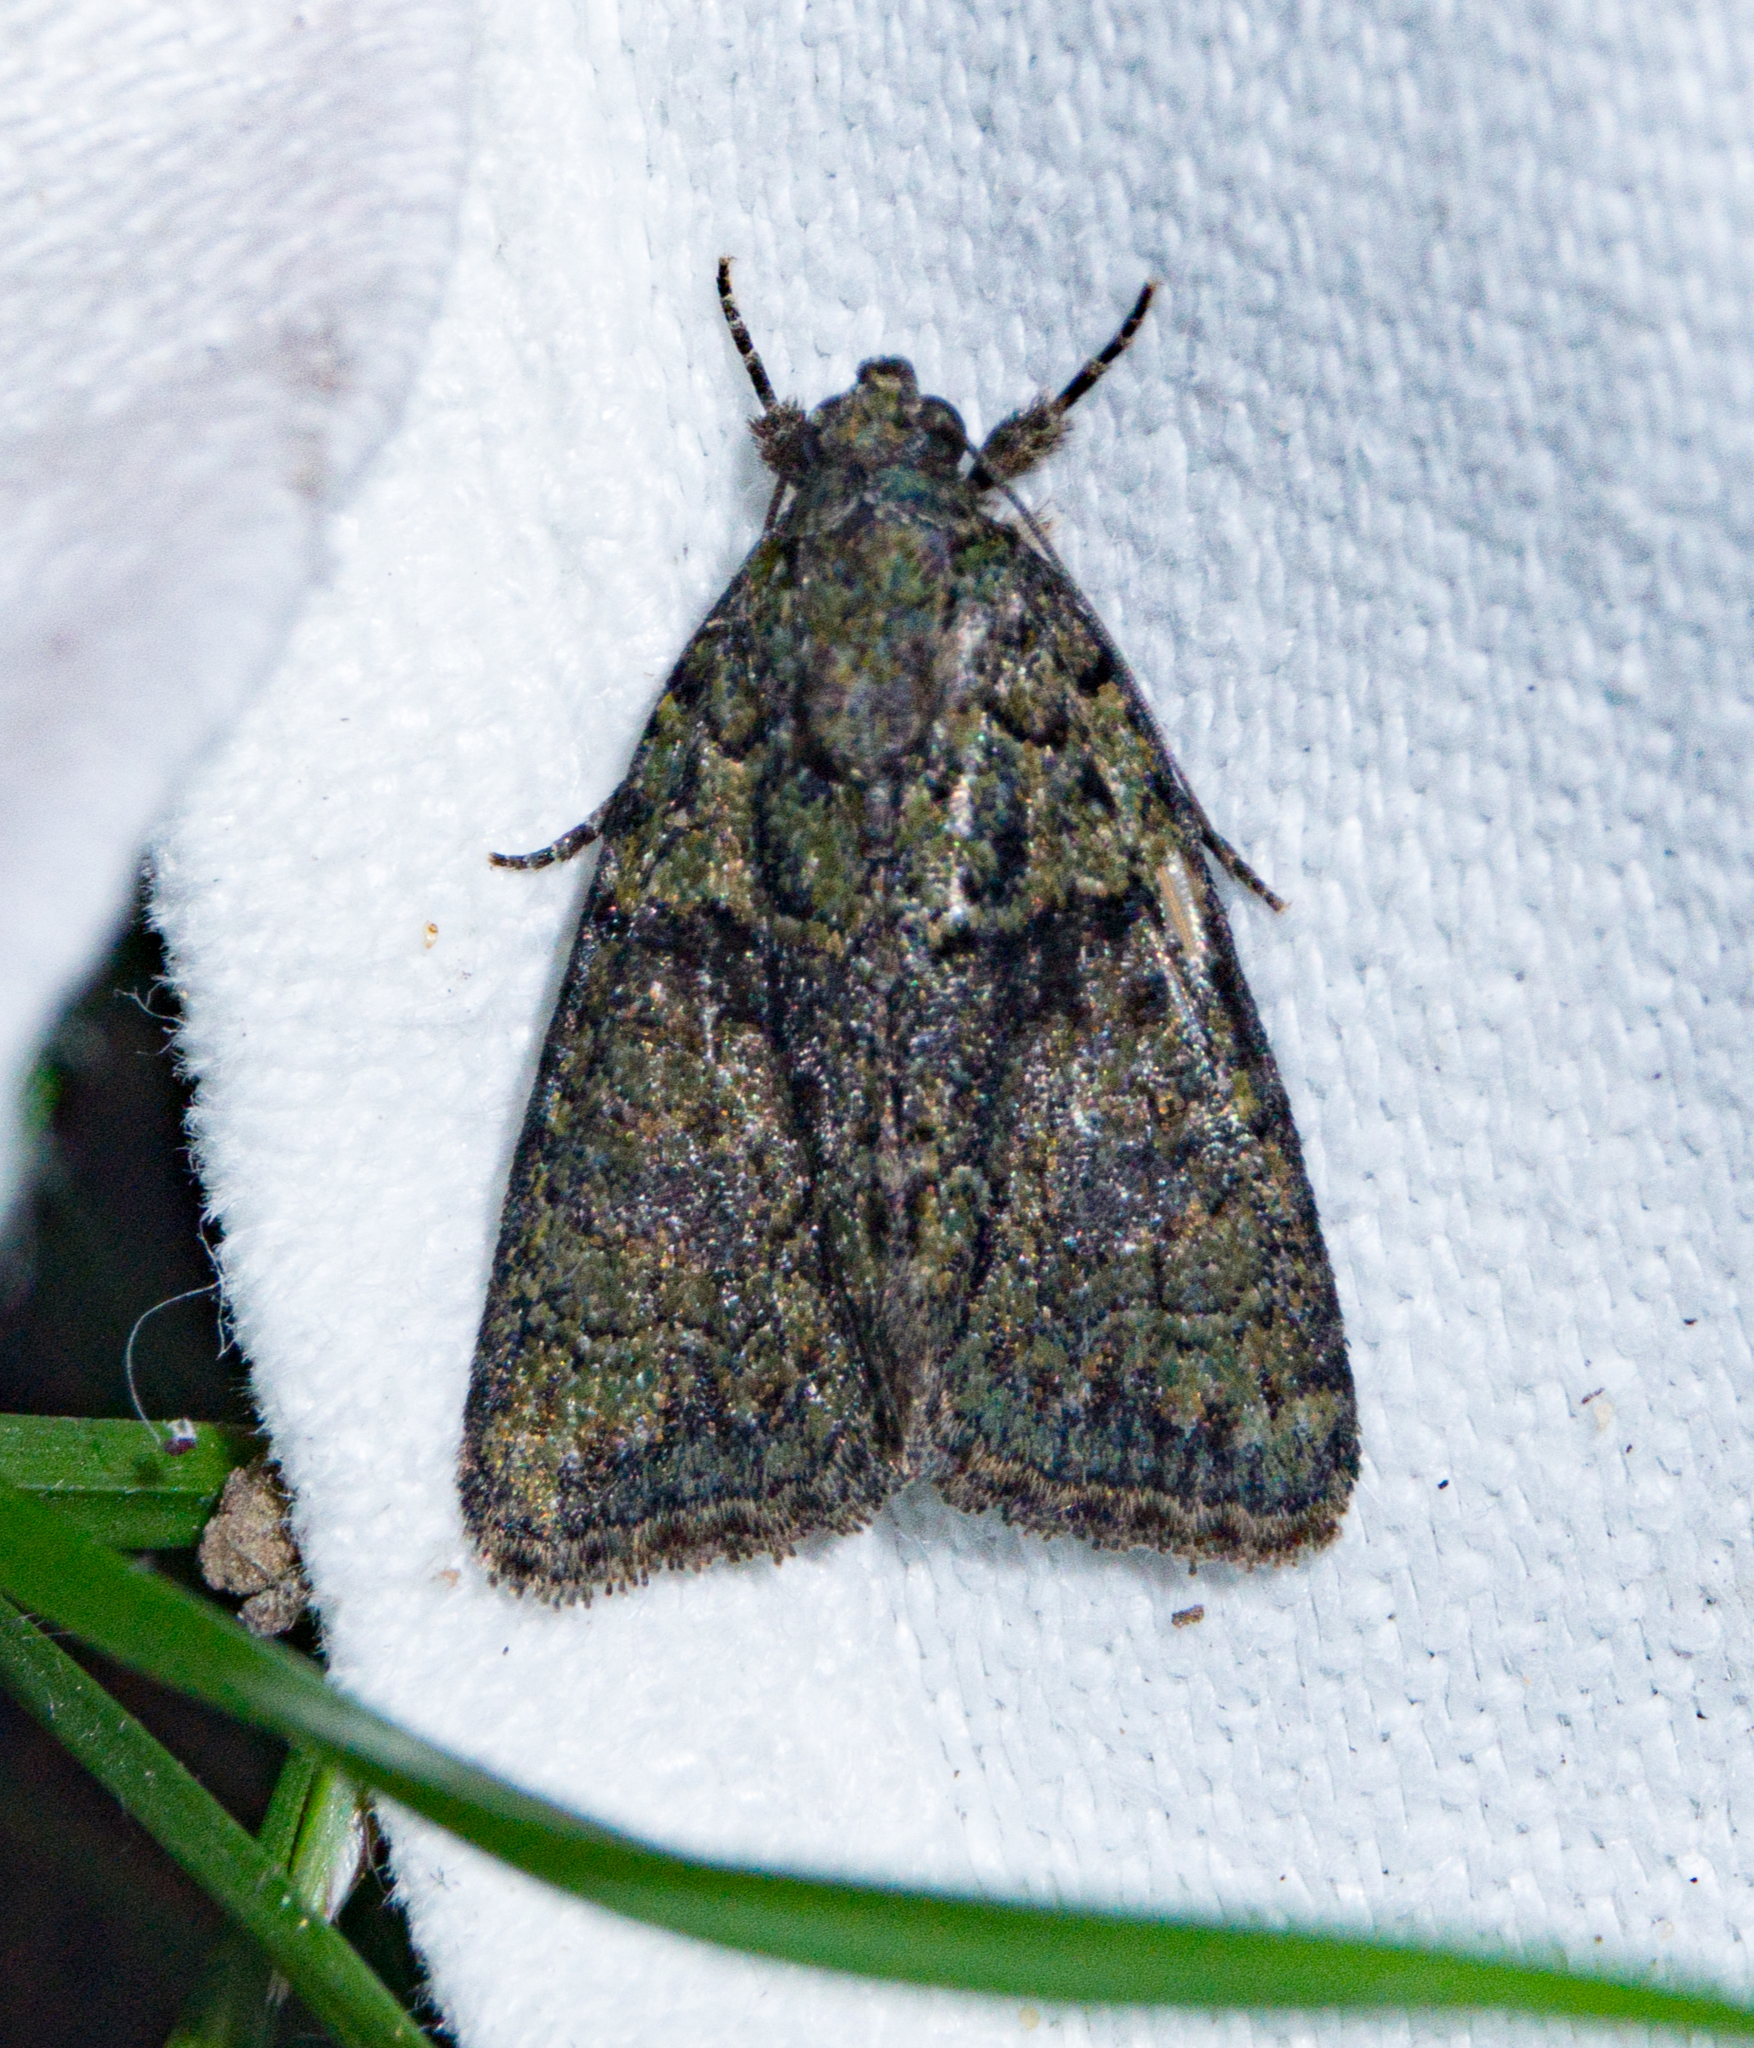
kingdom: Animalia
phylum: Arthropoda
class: Insecta
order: Lepidoptera
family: Noctuidae
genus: Cryphia
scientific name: Cryphia algae
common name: Tree-lichen beauty
